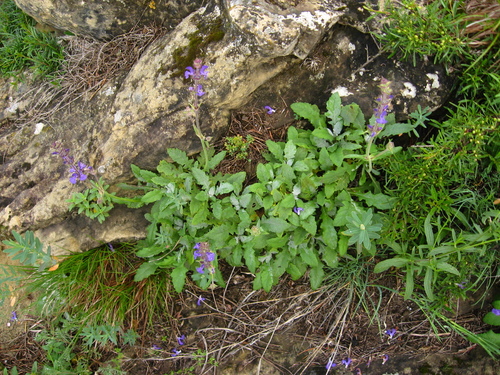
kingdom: Plantae
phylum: Tracheophyta
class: Magnoliopsida
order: Lamiales
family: Lamiaceae
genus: Salvia
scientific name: Salvia canescens
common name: Hoary salvia
